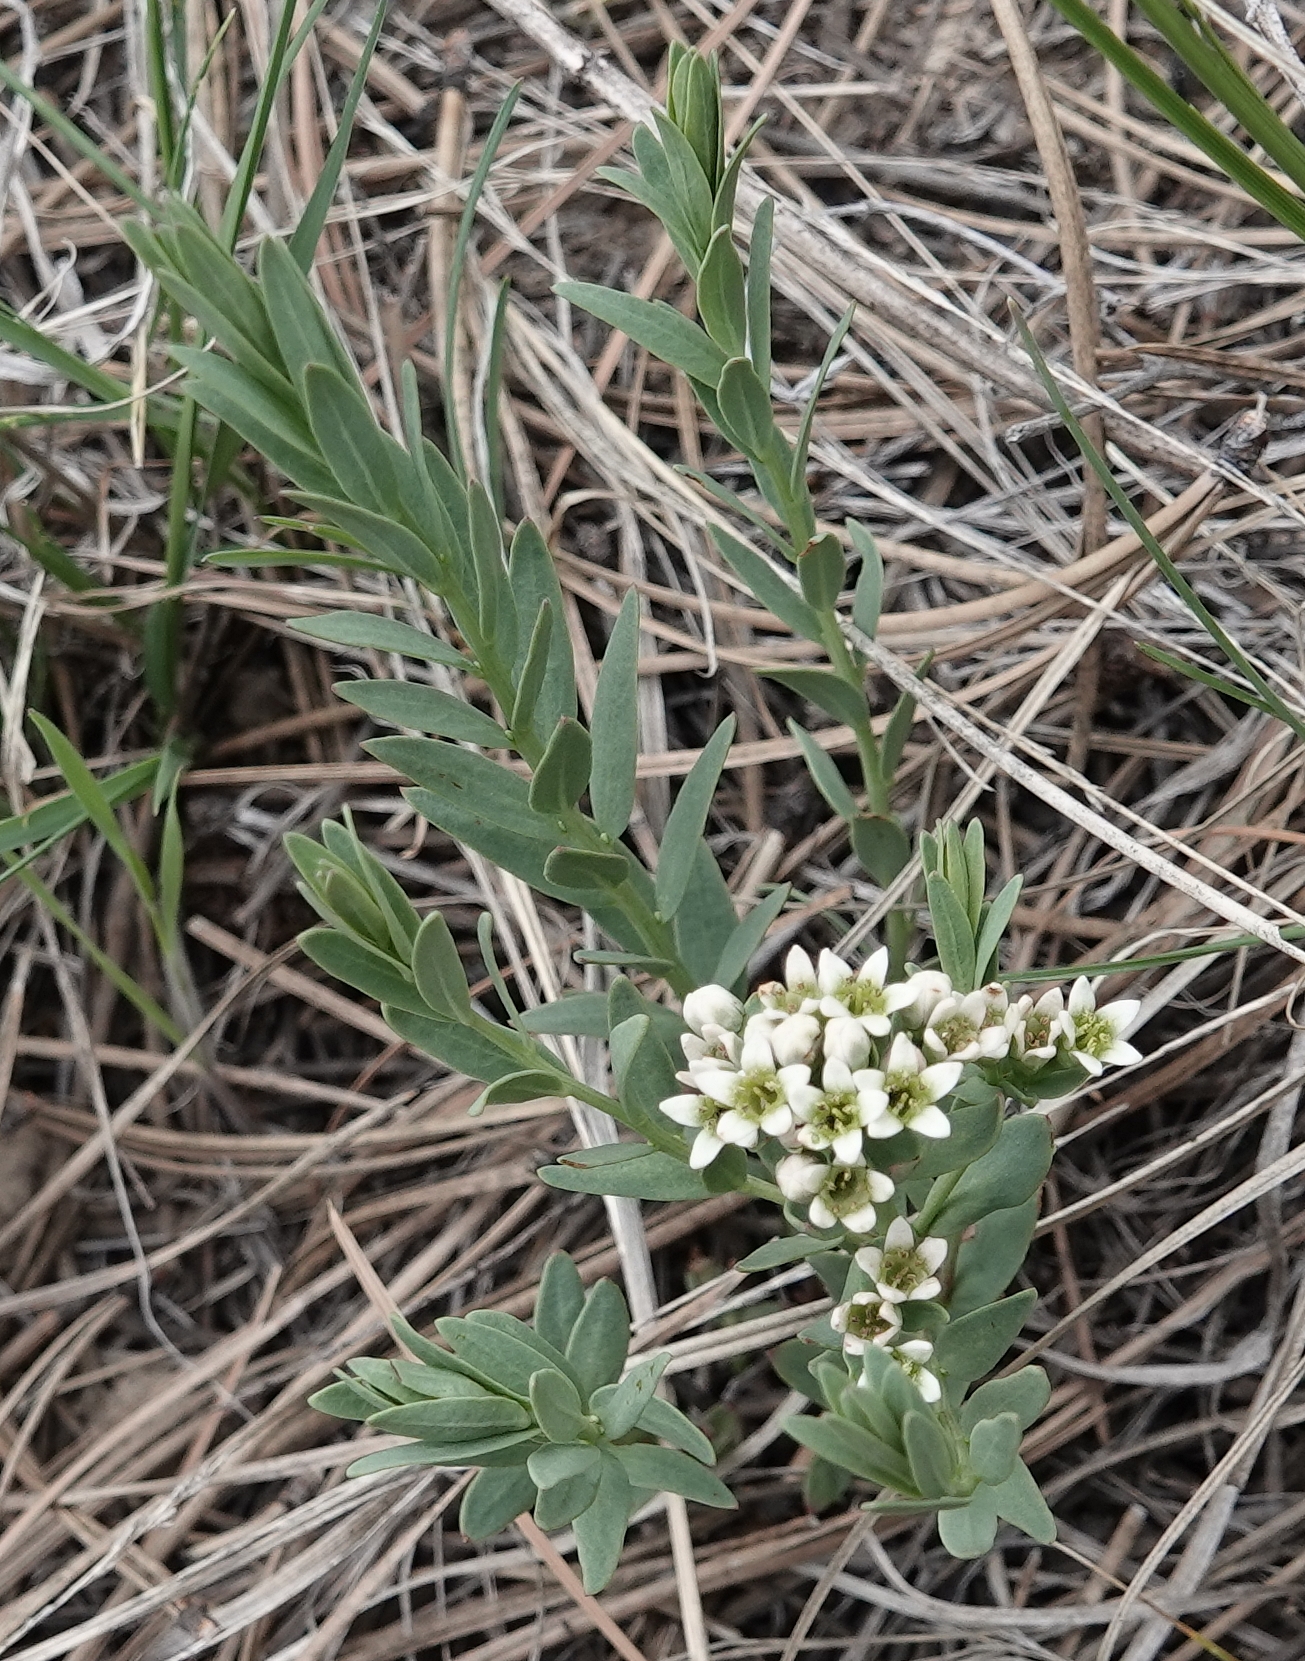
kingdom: Plantae
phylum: Tracheophyta
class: Magnoliopsida
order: Santalales
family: Comandraceae
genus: Comandra
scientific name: Comandra umbellata
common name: Bastard toadflax
